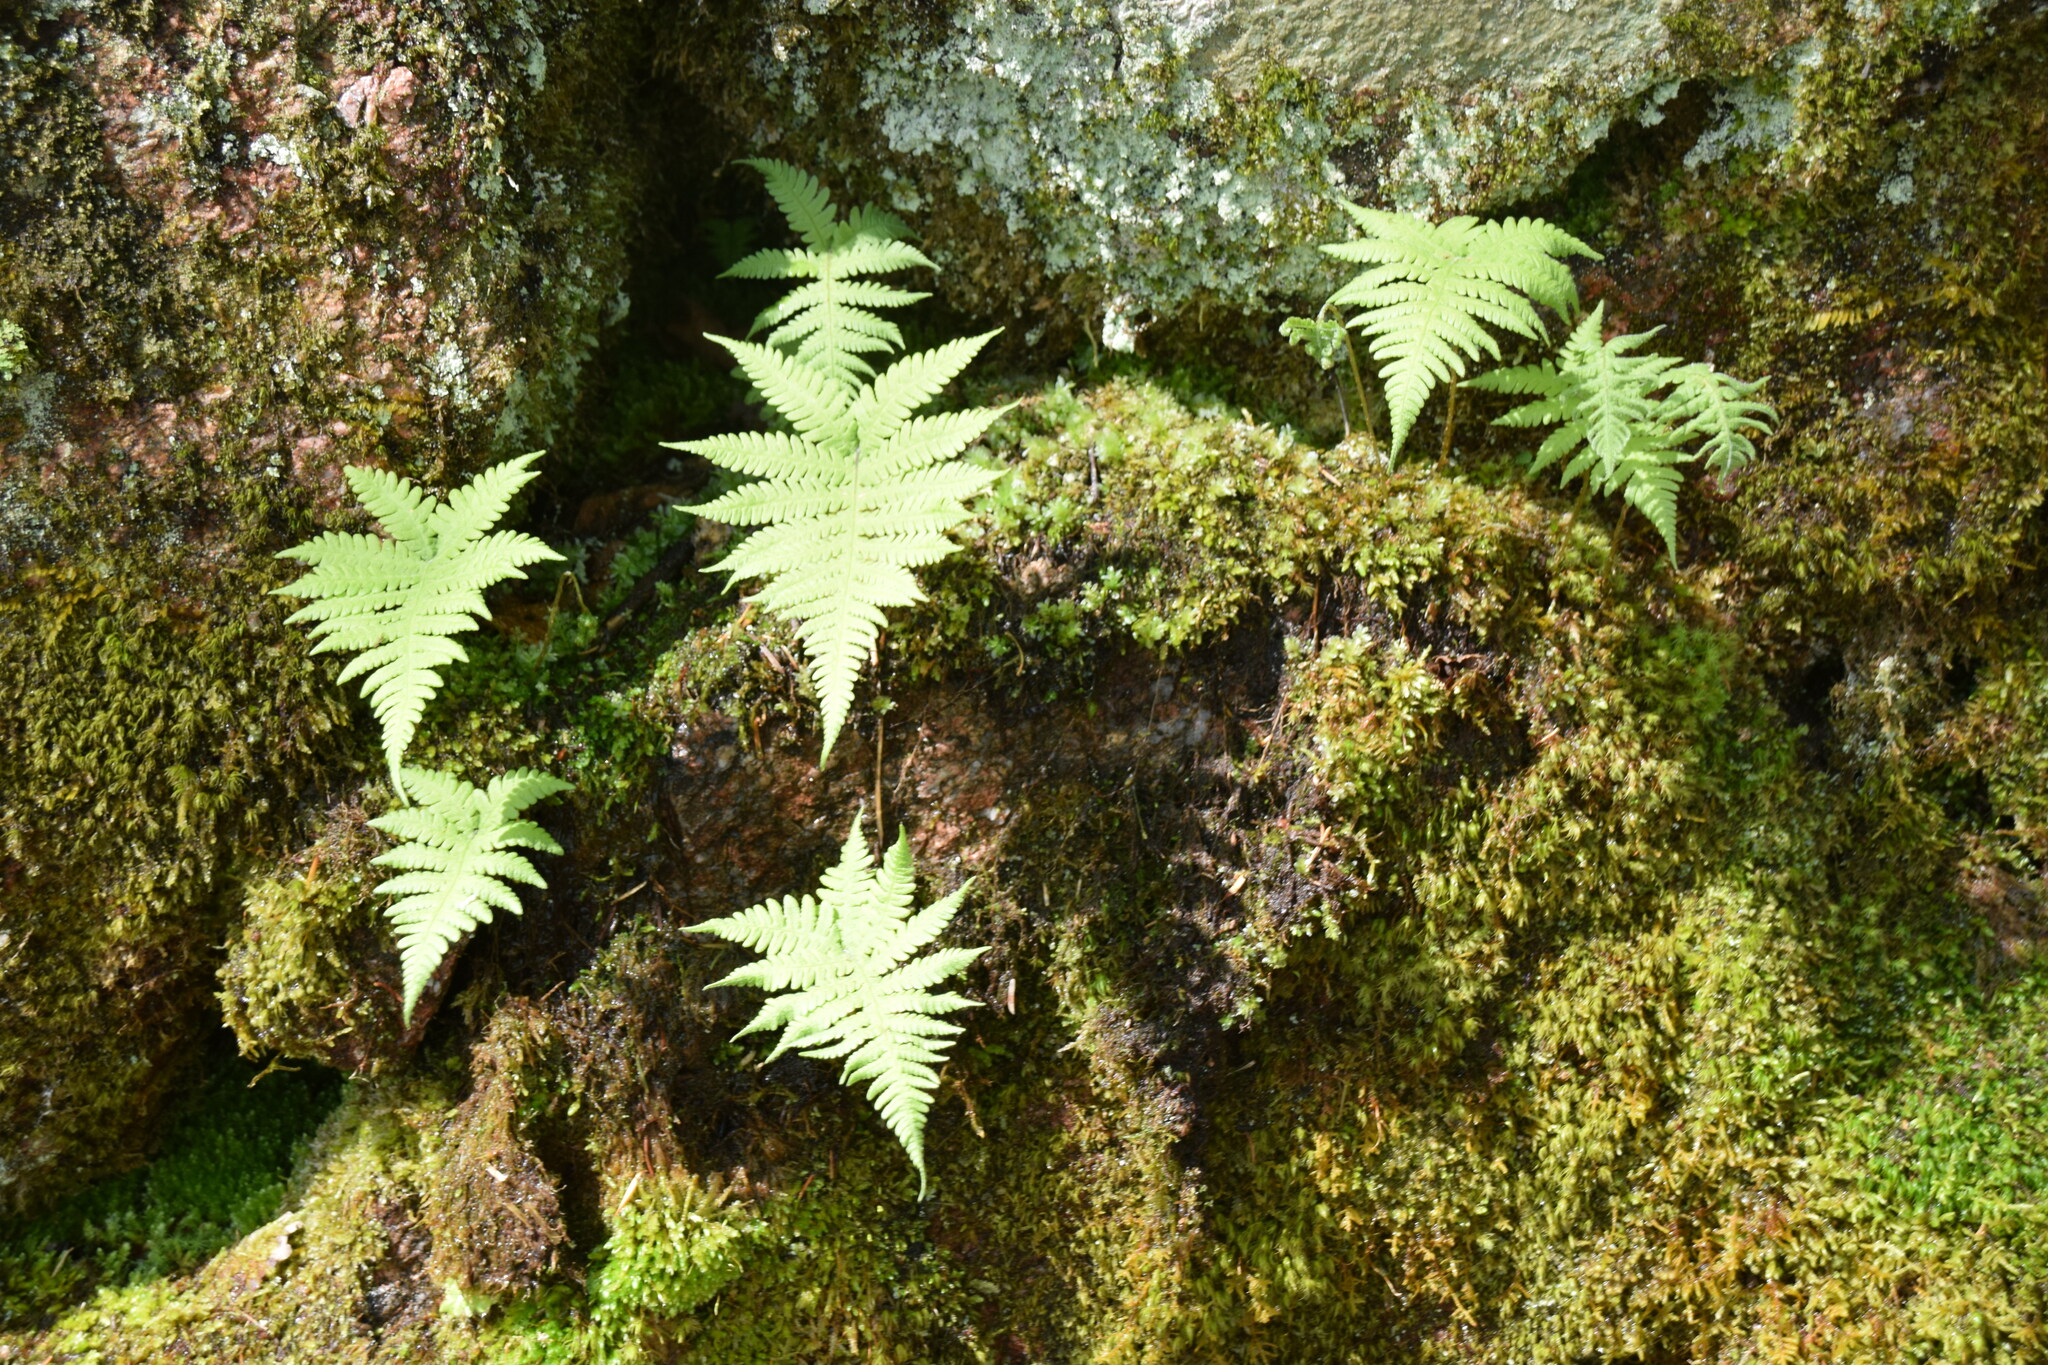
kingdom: Plantae
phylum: Tracheophyta
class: Polypodiopsida
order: Polypodiales
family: Thelypteridaceae
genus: Phegopteris
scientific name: Phegopteris connectilis
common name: Beech fern
